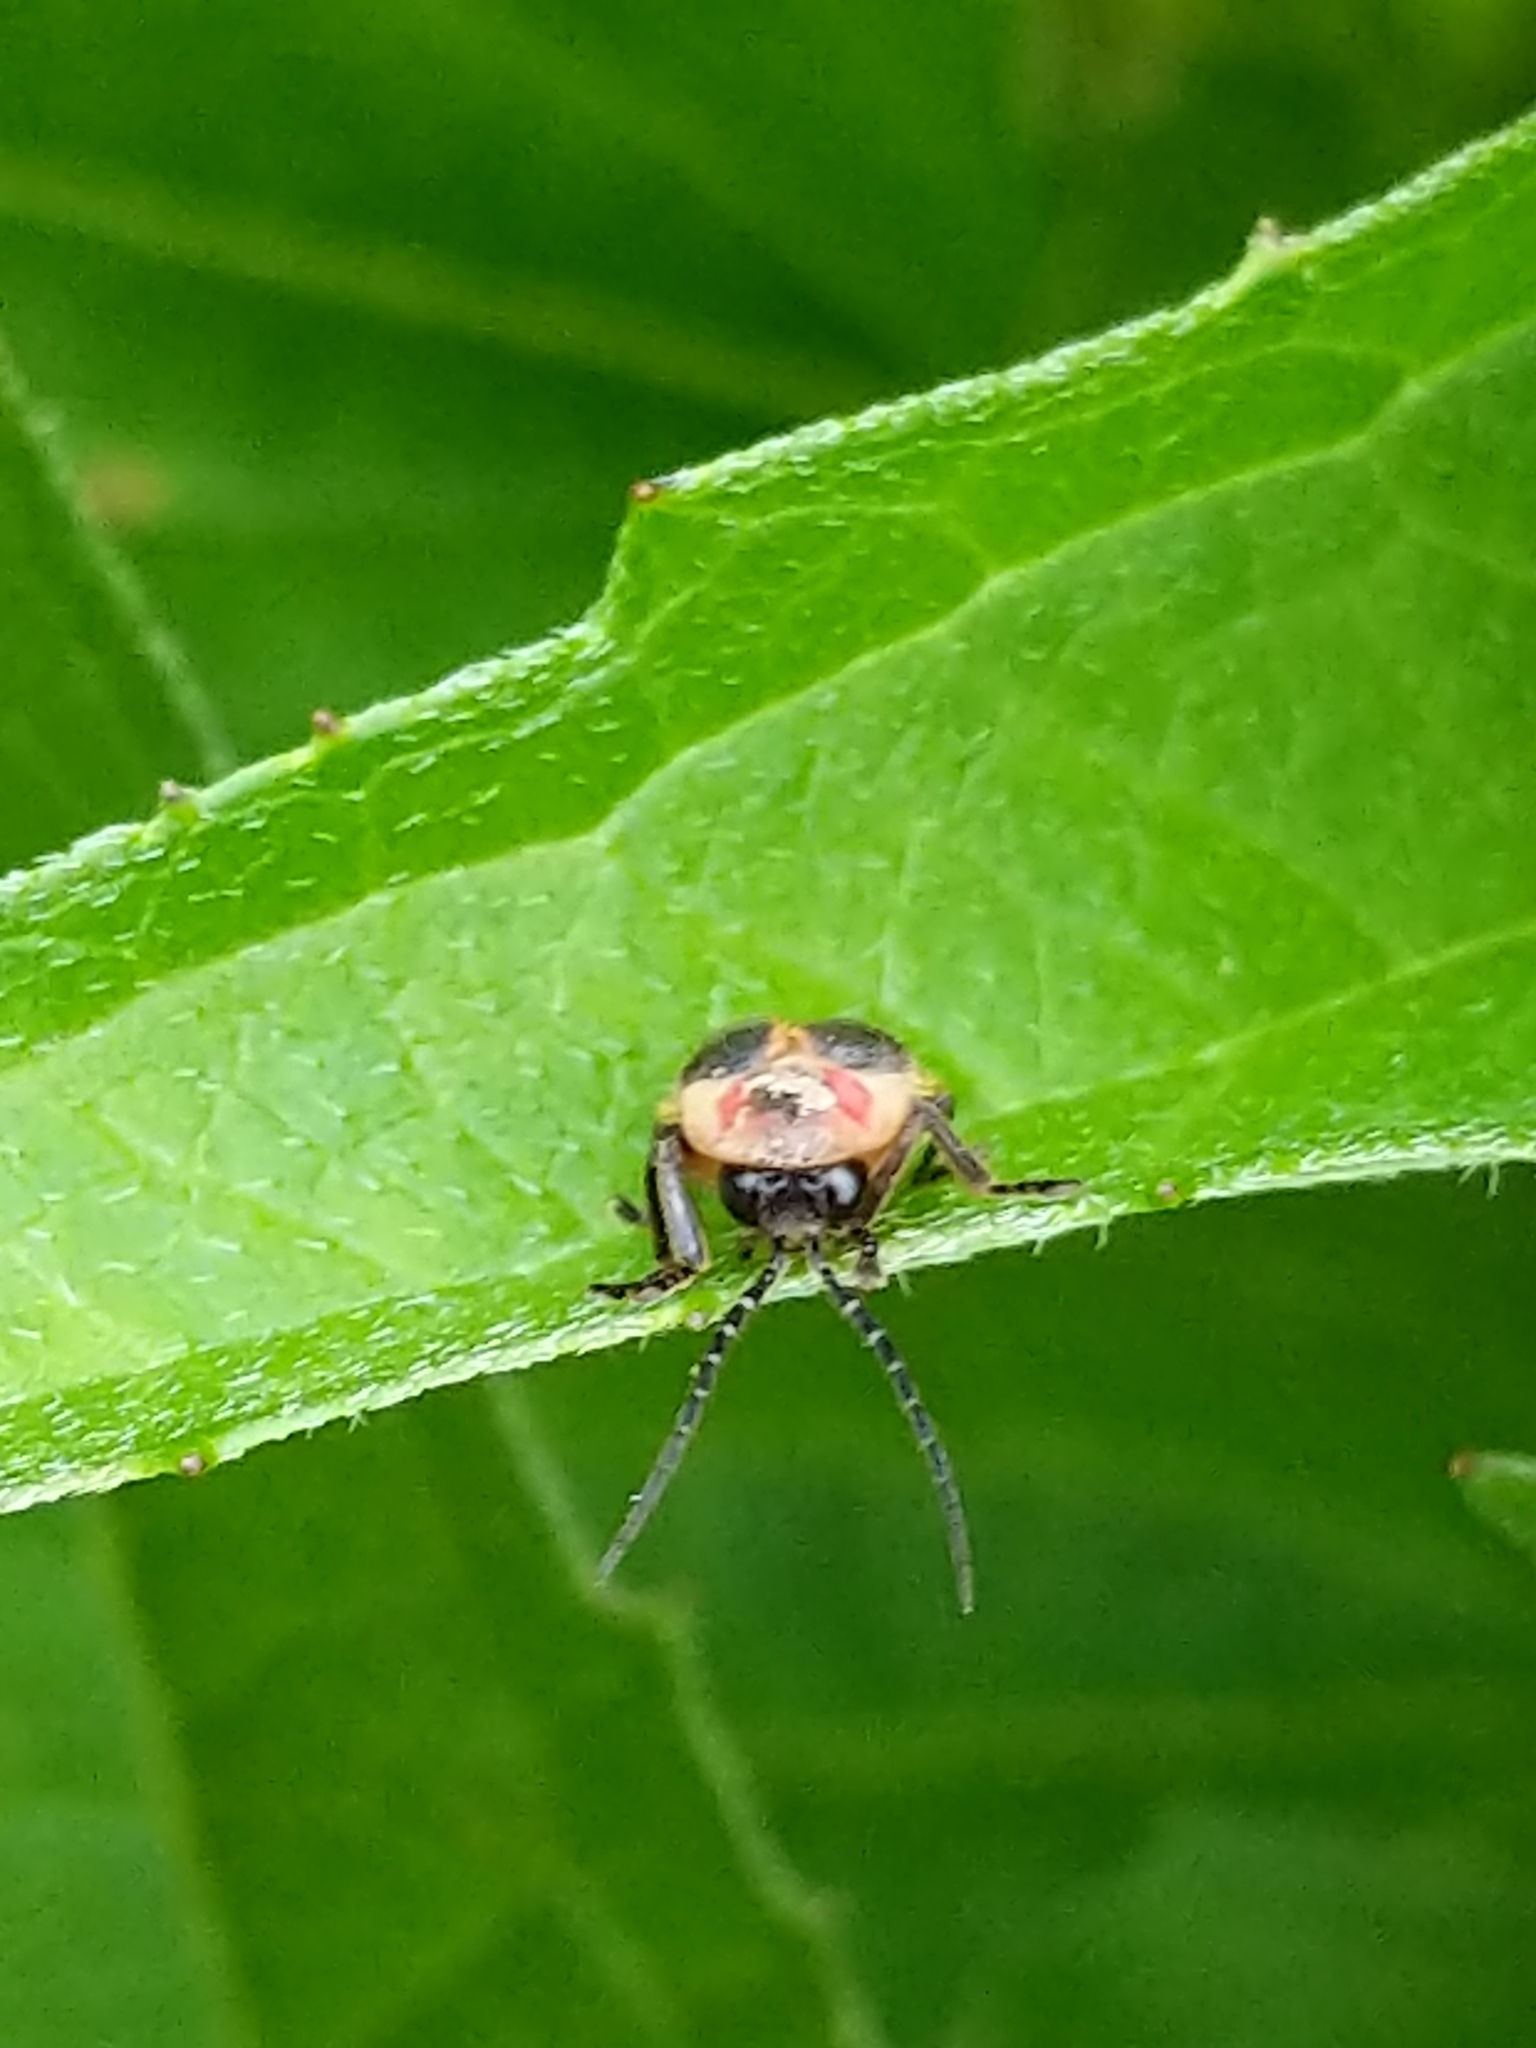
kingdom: Animalia
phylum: Arthropoda
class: Insecta
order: Coleoptera
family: Lampyridae
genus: Photinus
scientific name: Photinus pyralis
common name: Big dipper firefly
